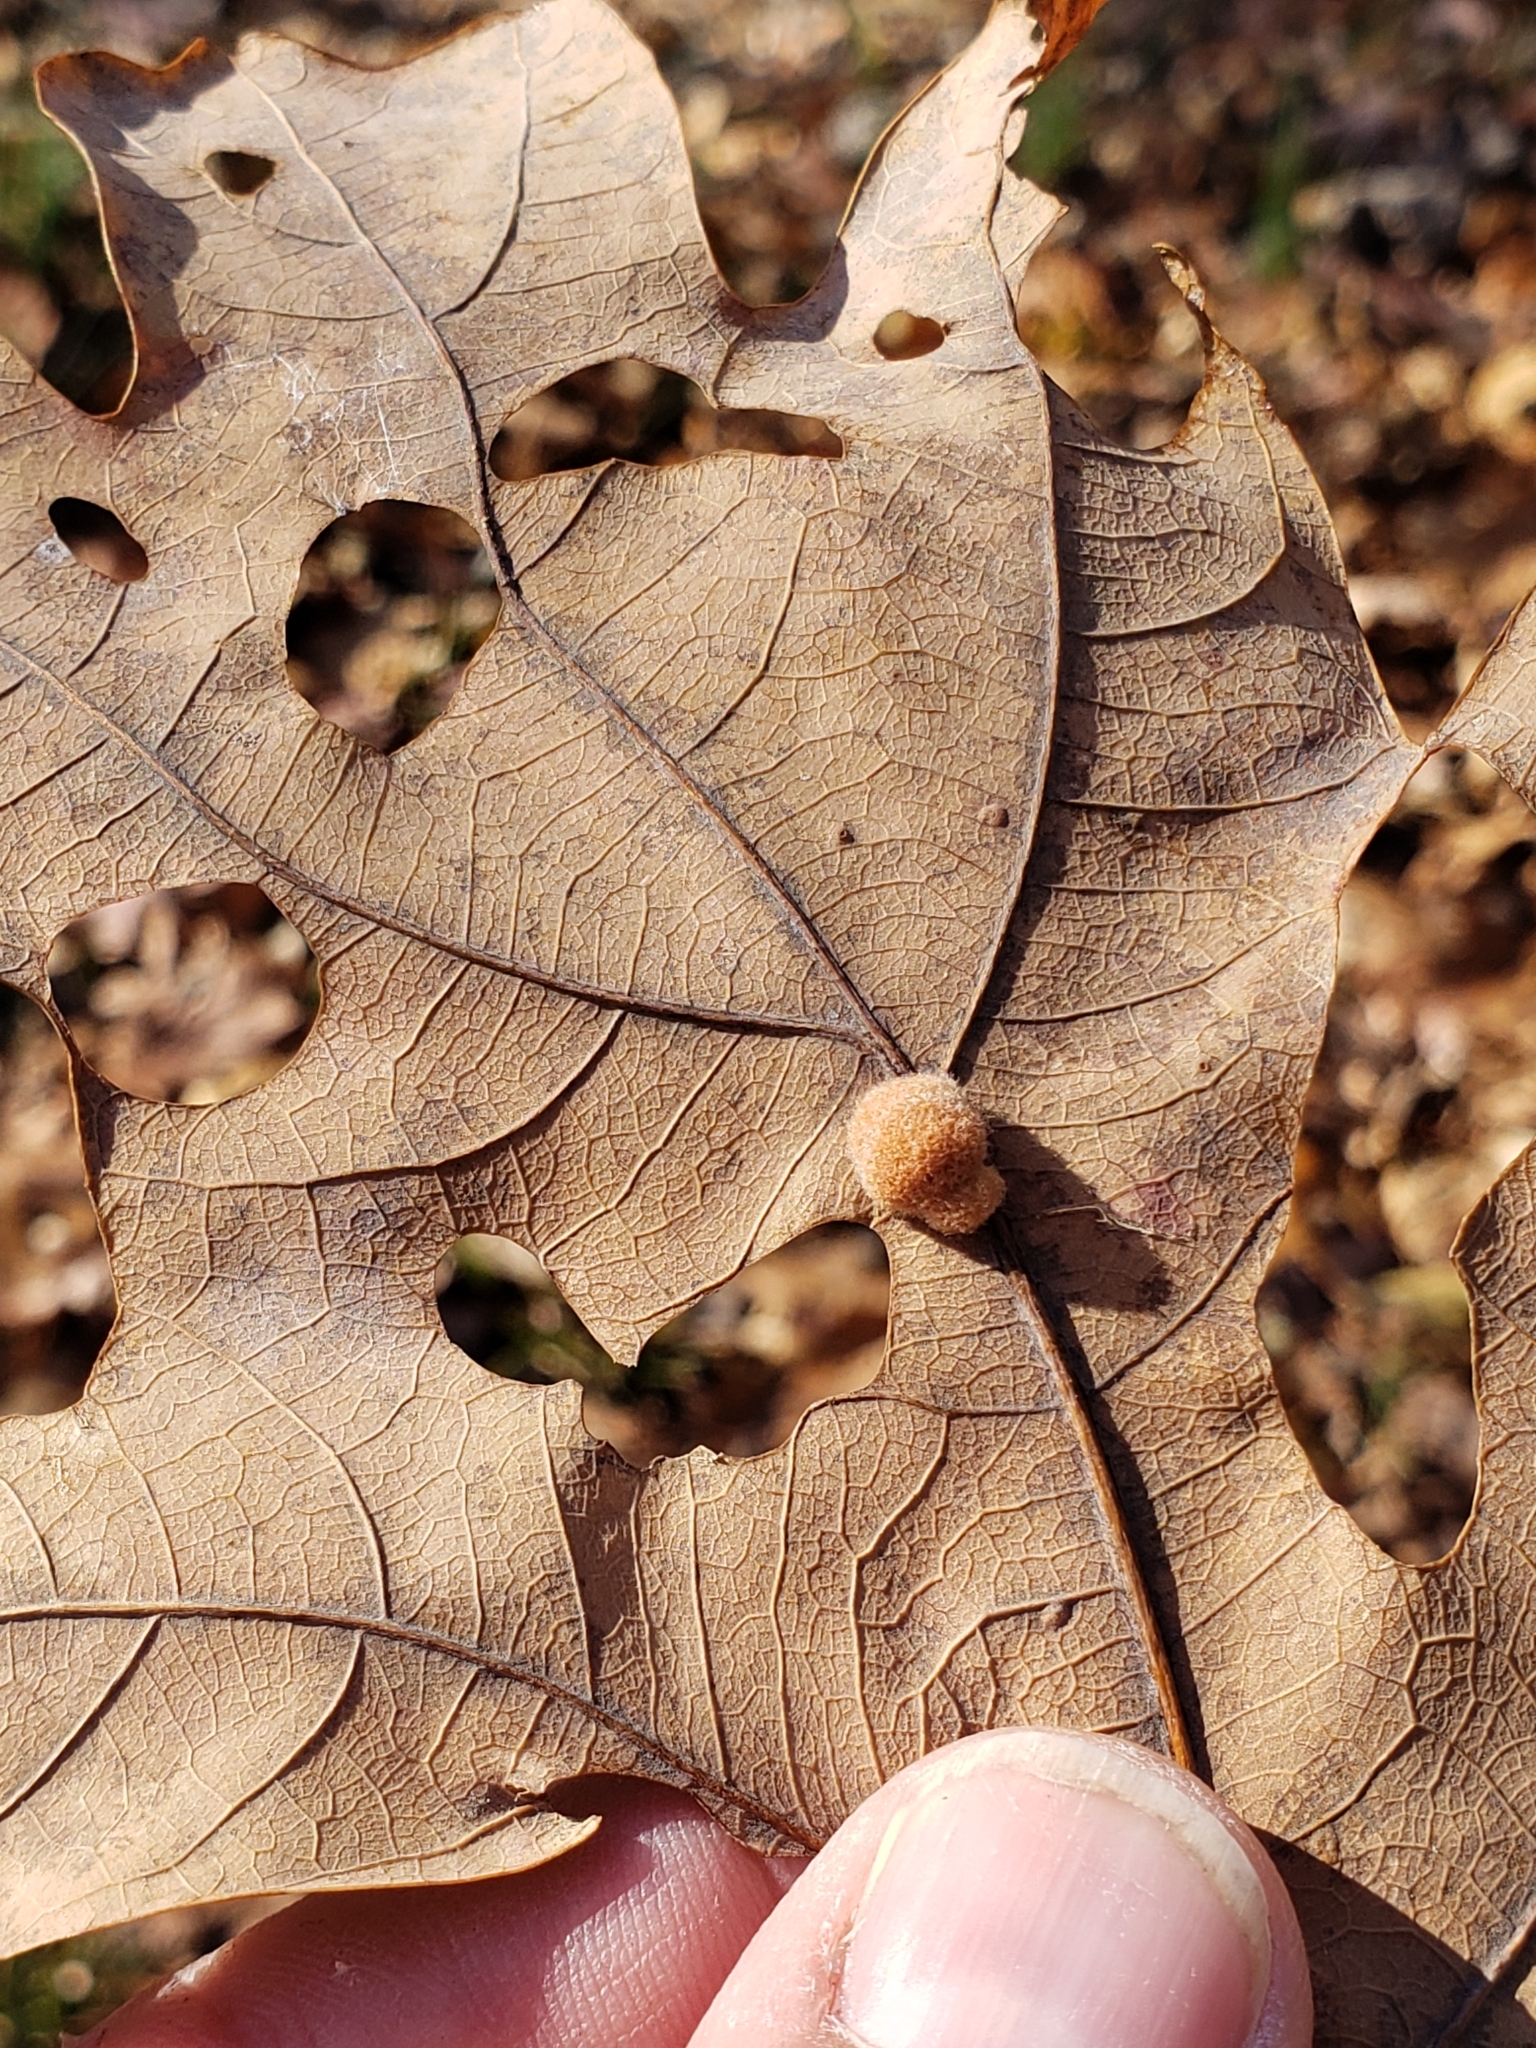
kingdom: Animalia
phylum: Arthropoda
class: Insecta
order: Hymenoptera
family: Cynipidae
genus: Andricus
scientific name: Andricus quercusflocci
